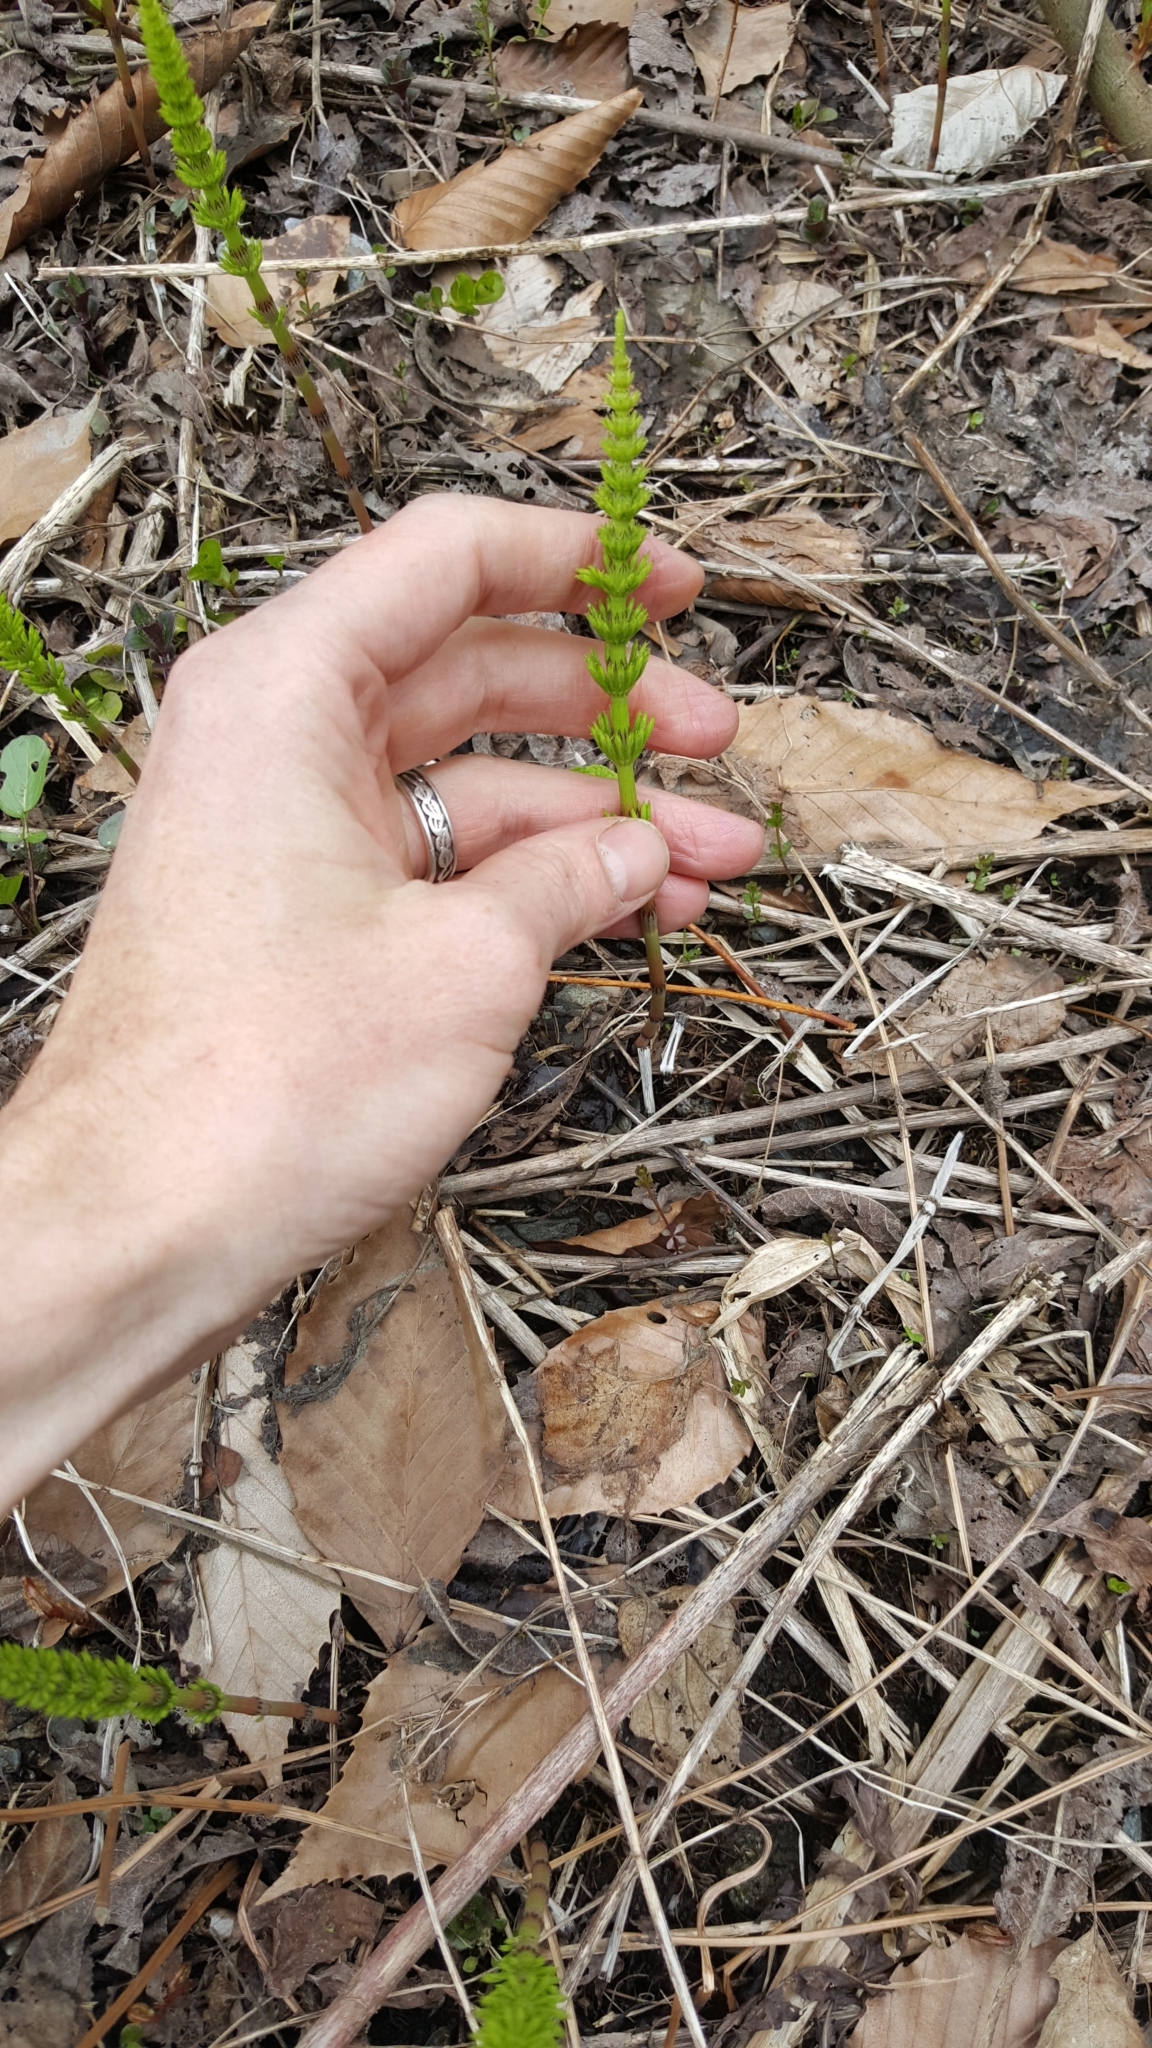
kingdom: Plantae
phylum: Tracheophyta
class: Polypodiopsida
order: Equisetales
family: Equisetaceae
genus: Equisetum
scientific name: Equisetum arvense
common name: Field horsetail
